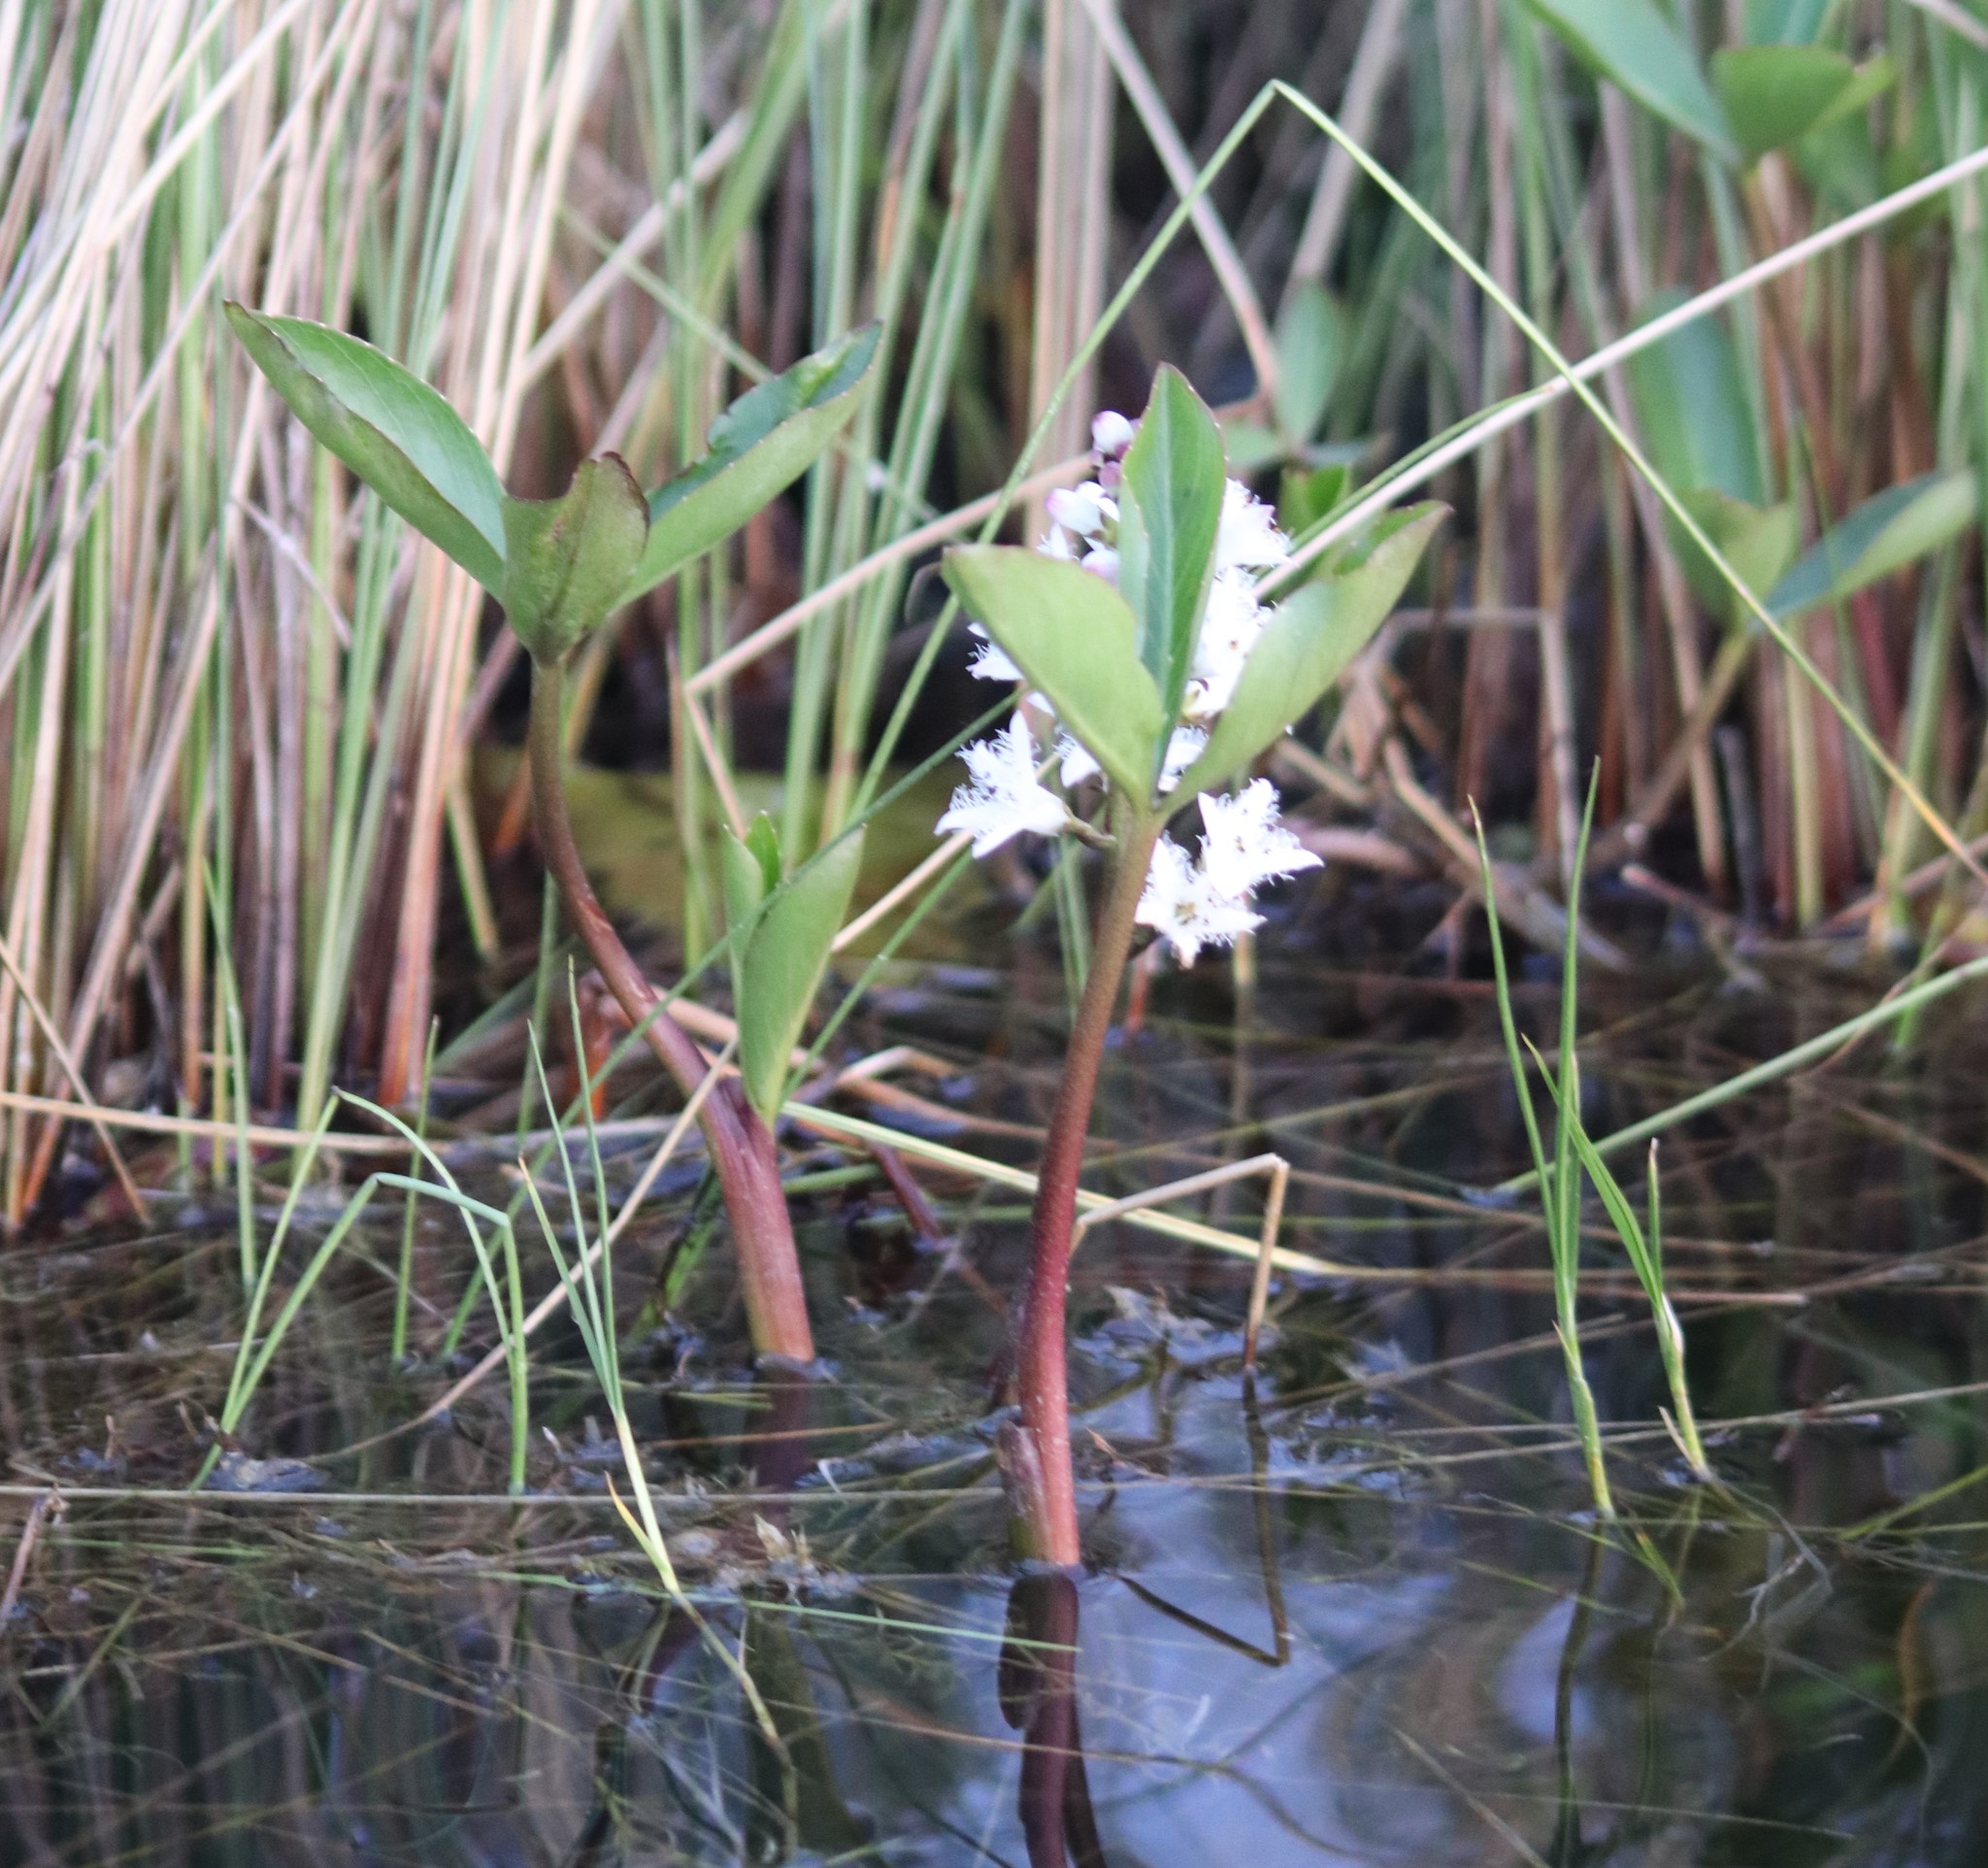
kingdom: Plantae
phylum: Tracheophyta
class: Magnoliopsida
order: Asterales
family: Menyanthaceae
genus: Menyanthes
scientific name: Menyanthes trifoliata
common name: Bogbean
